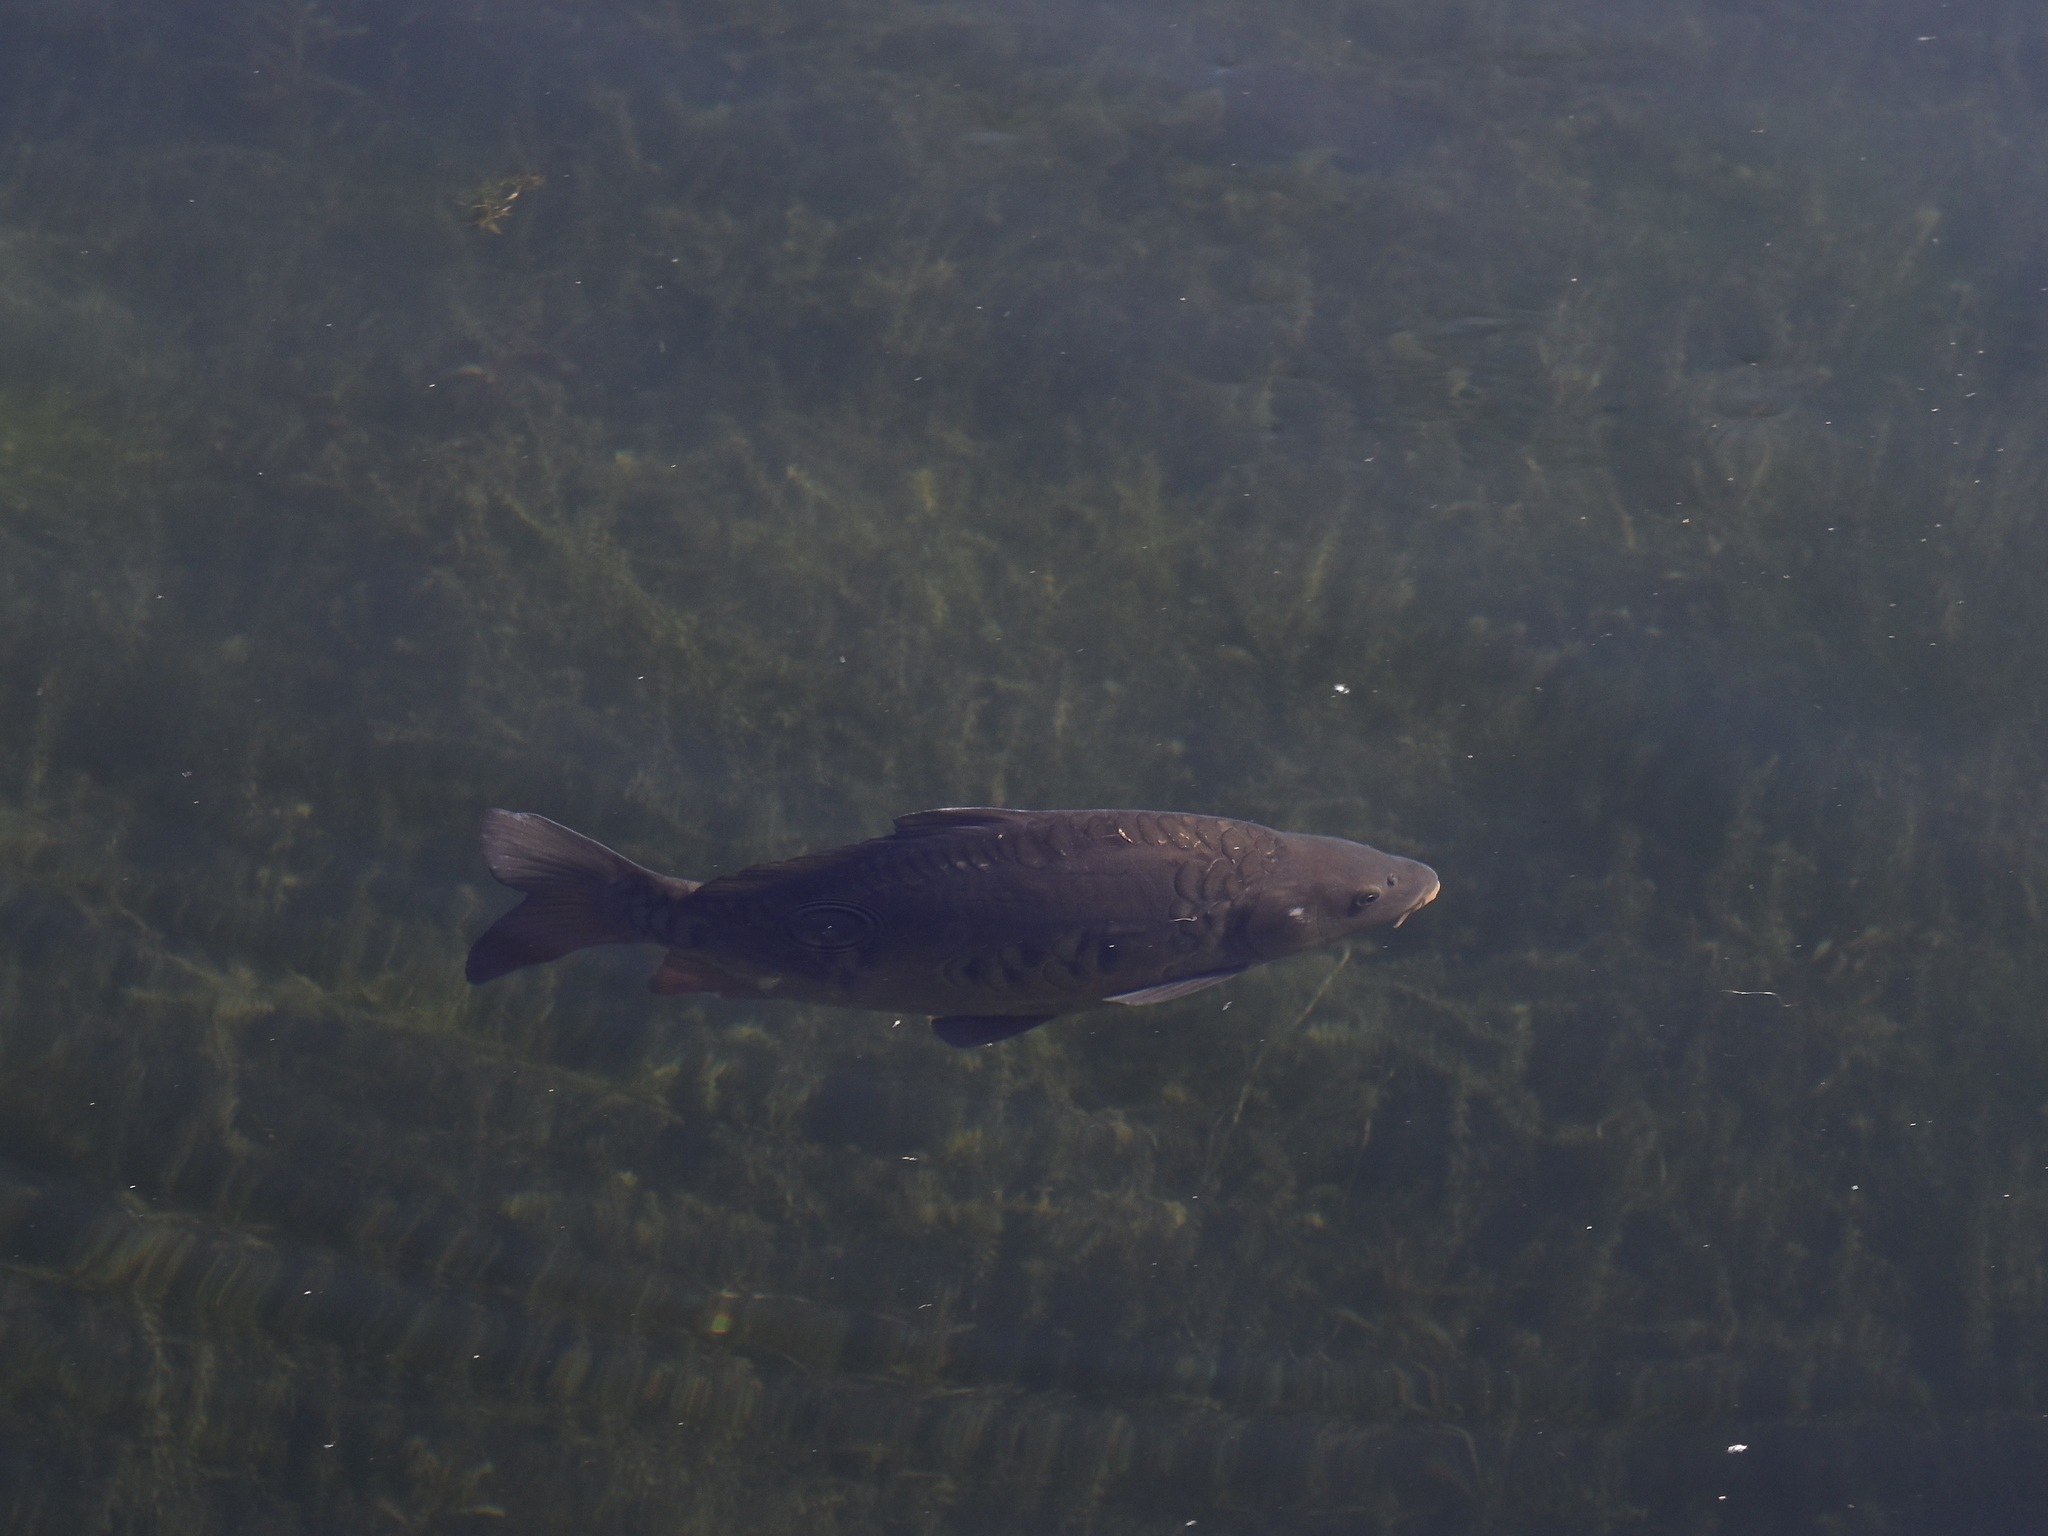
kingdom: Animalia
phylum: Chordata
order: Cypriniformes
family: Cyprinidae
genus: Cyprinus
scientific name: Cyprinus carpio
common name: Common carp
